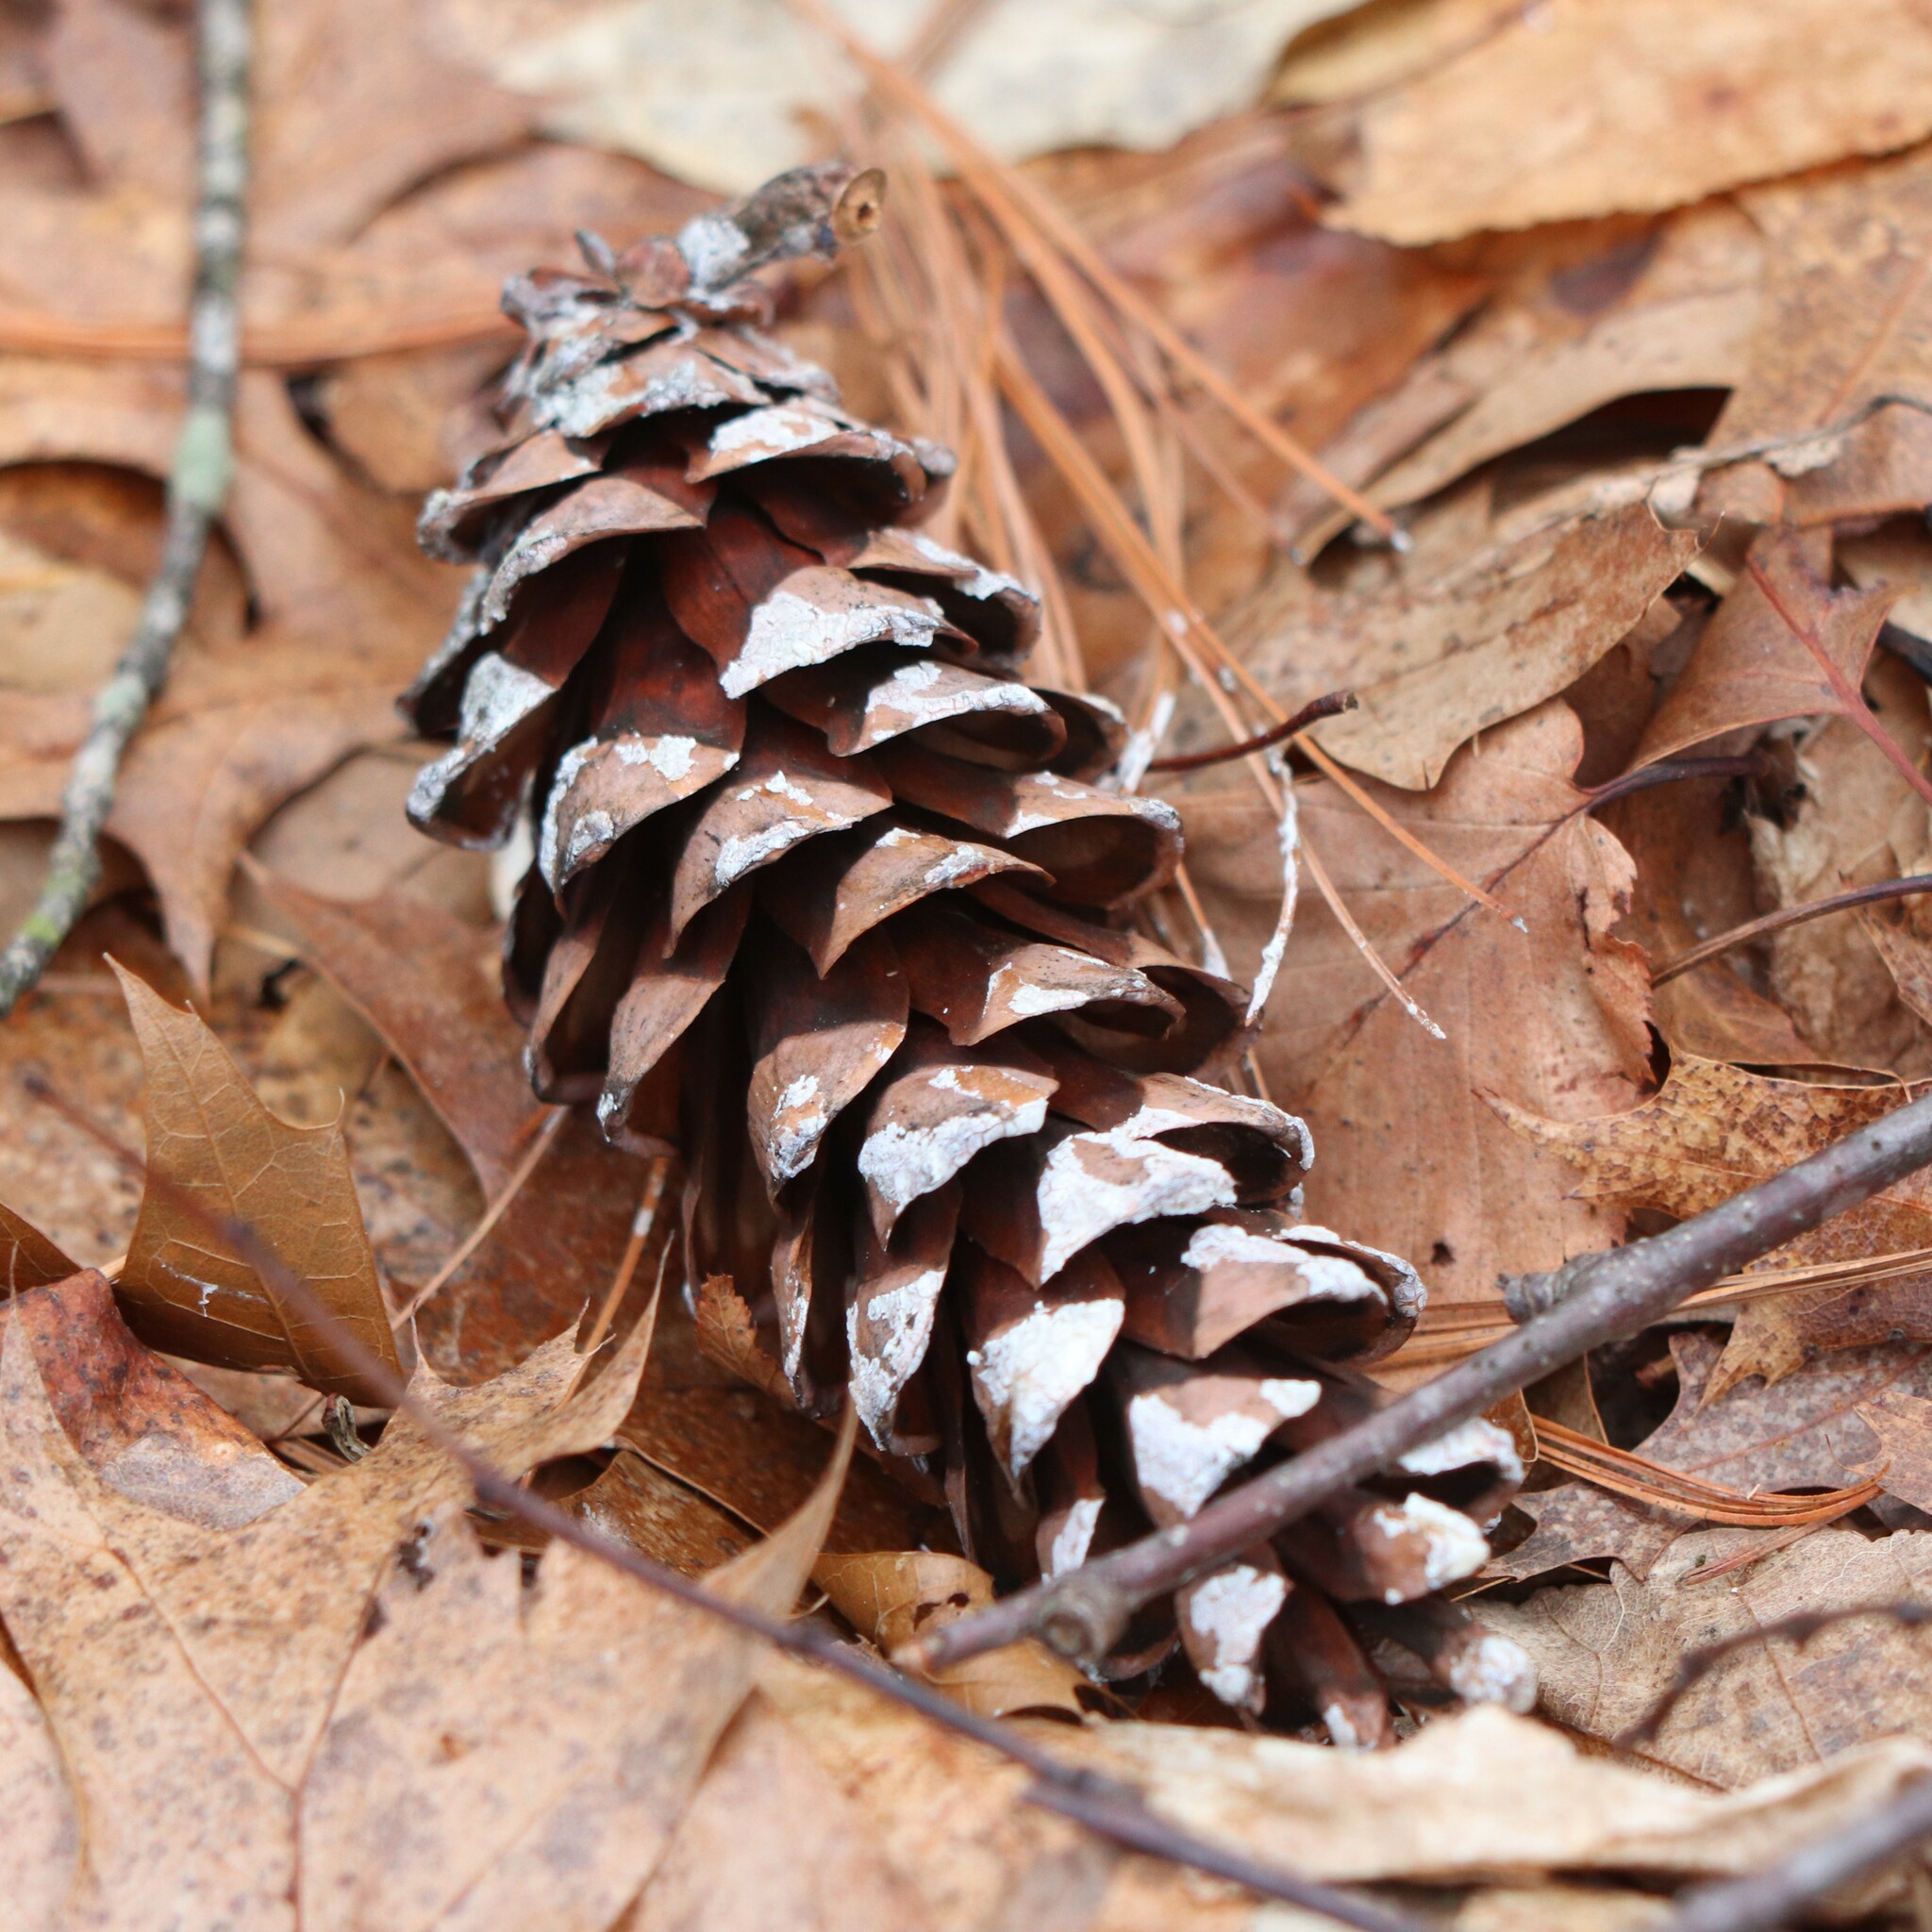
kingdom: Plantae
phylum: Tracheophyta
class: Pinopsida
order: Pinales
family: Pinaceae
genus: Pinus
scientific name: Pinus strobus
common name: Weymouth pine
